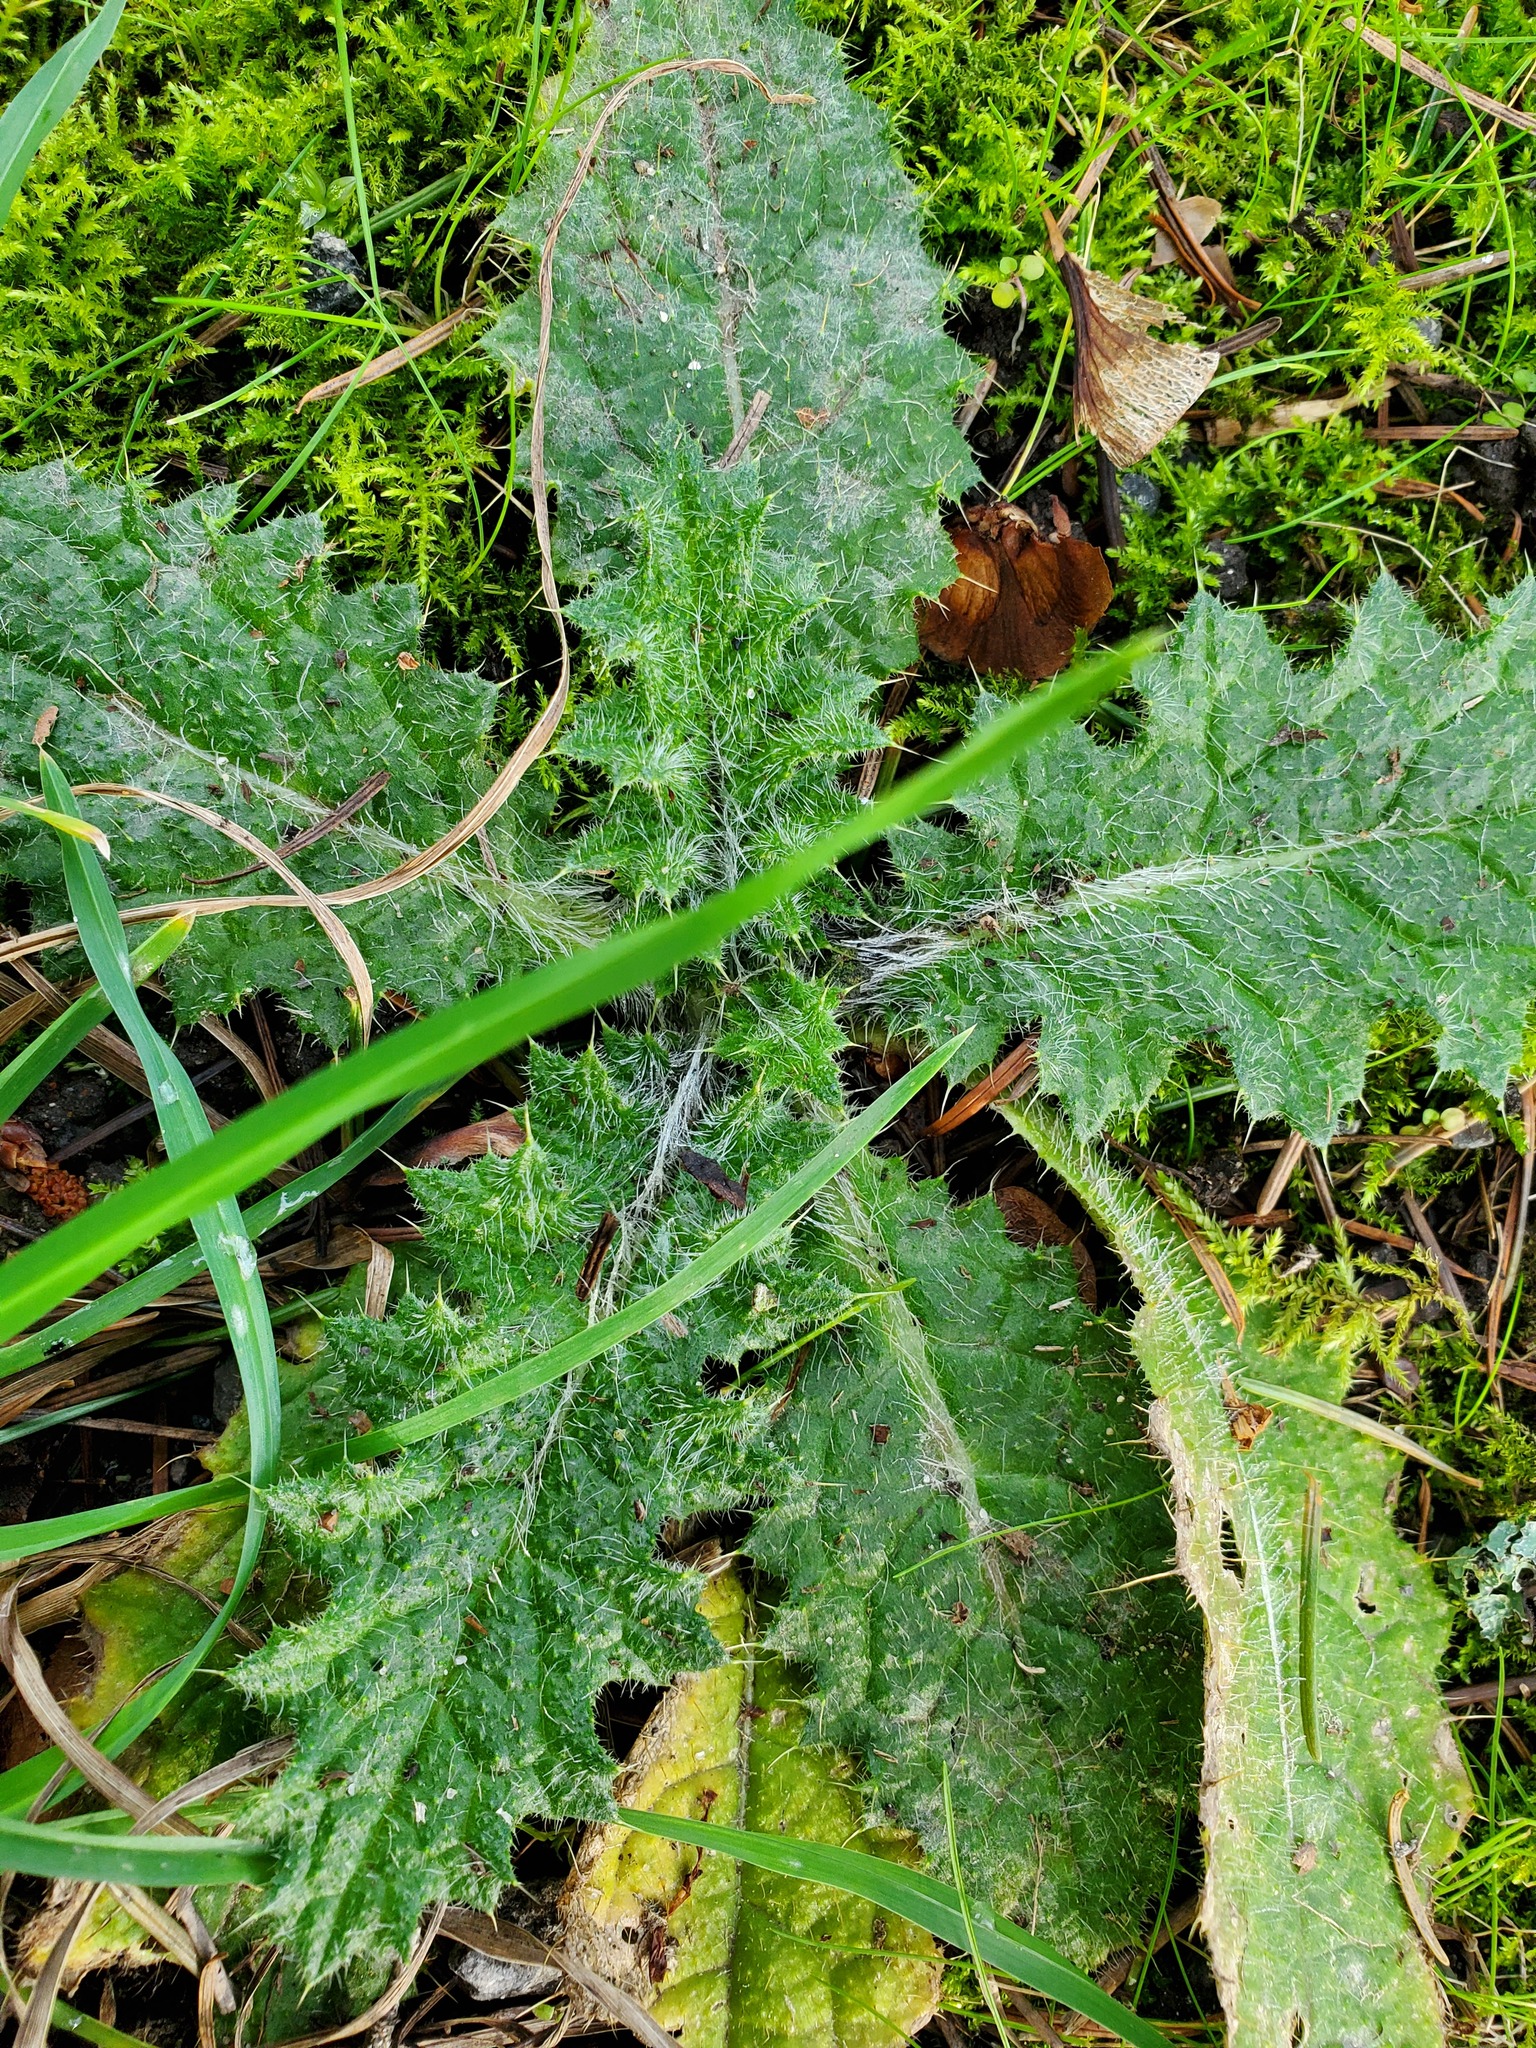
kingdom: Plantae
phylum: Tracheophyta
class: Magnoliopsida
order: Asterales
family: Asteraceae
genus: Cirsium
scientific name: Cirsium vulgare
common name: Bull thistle
